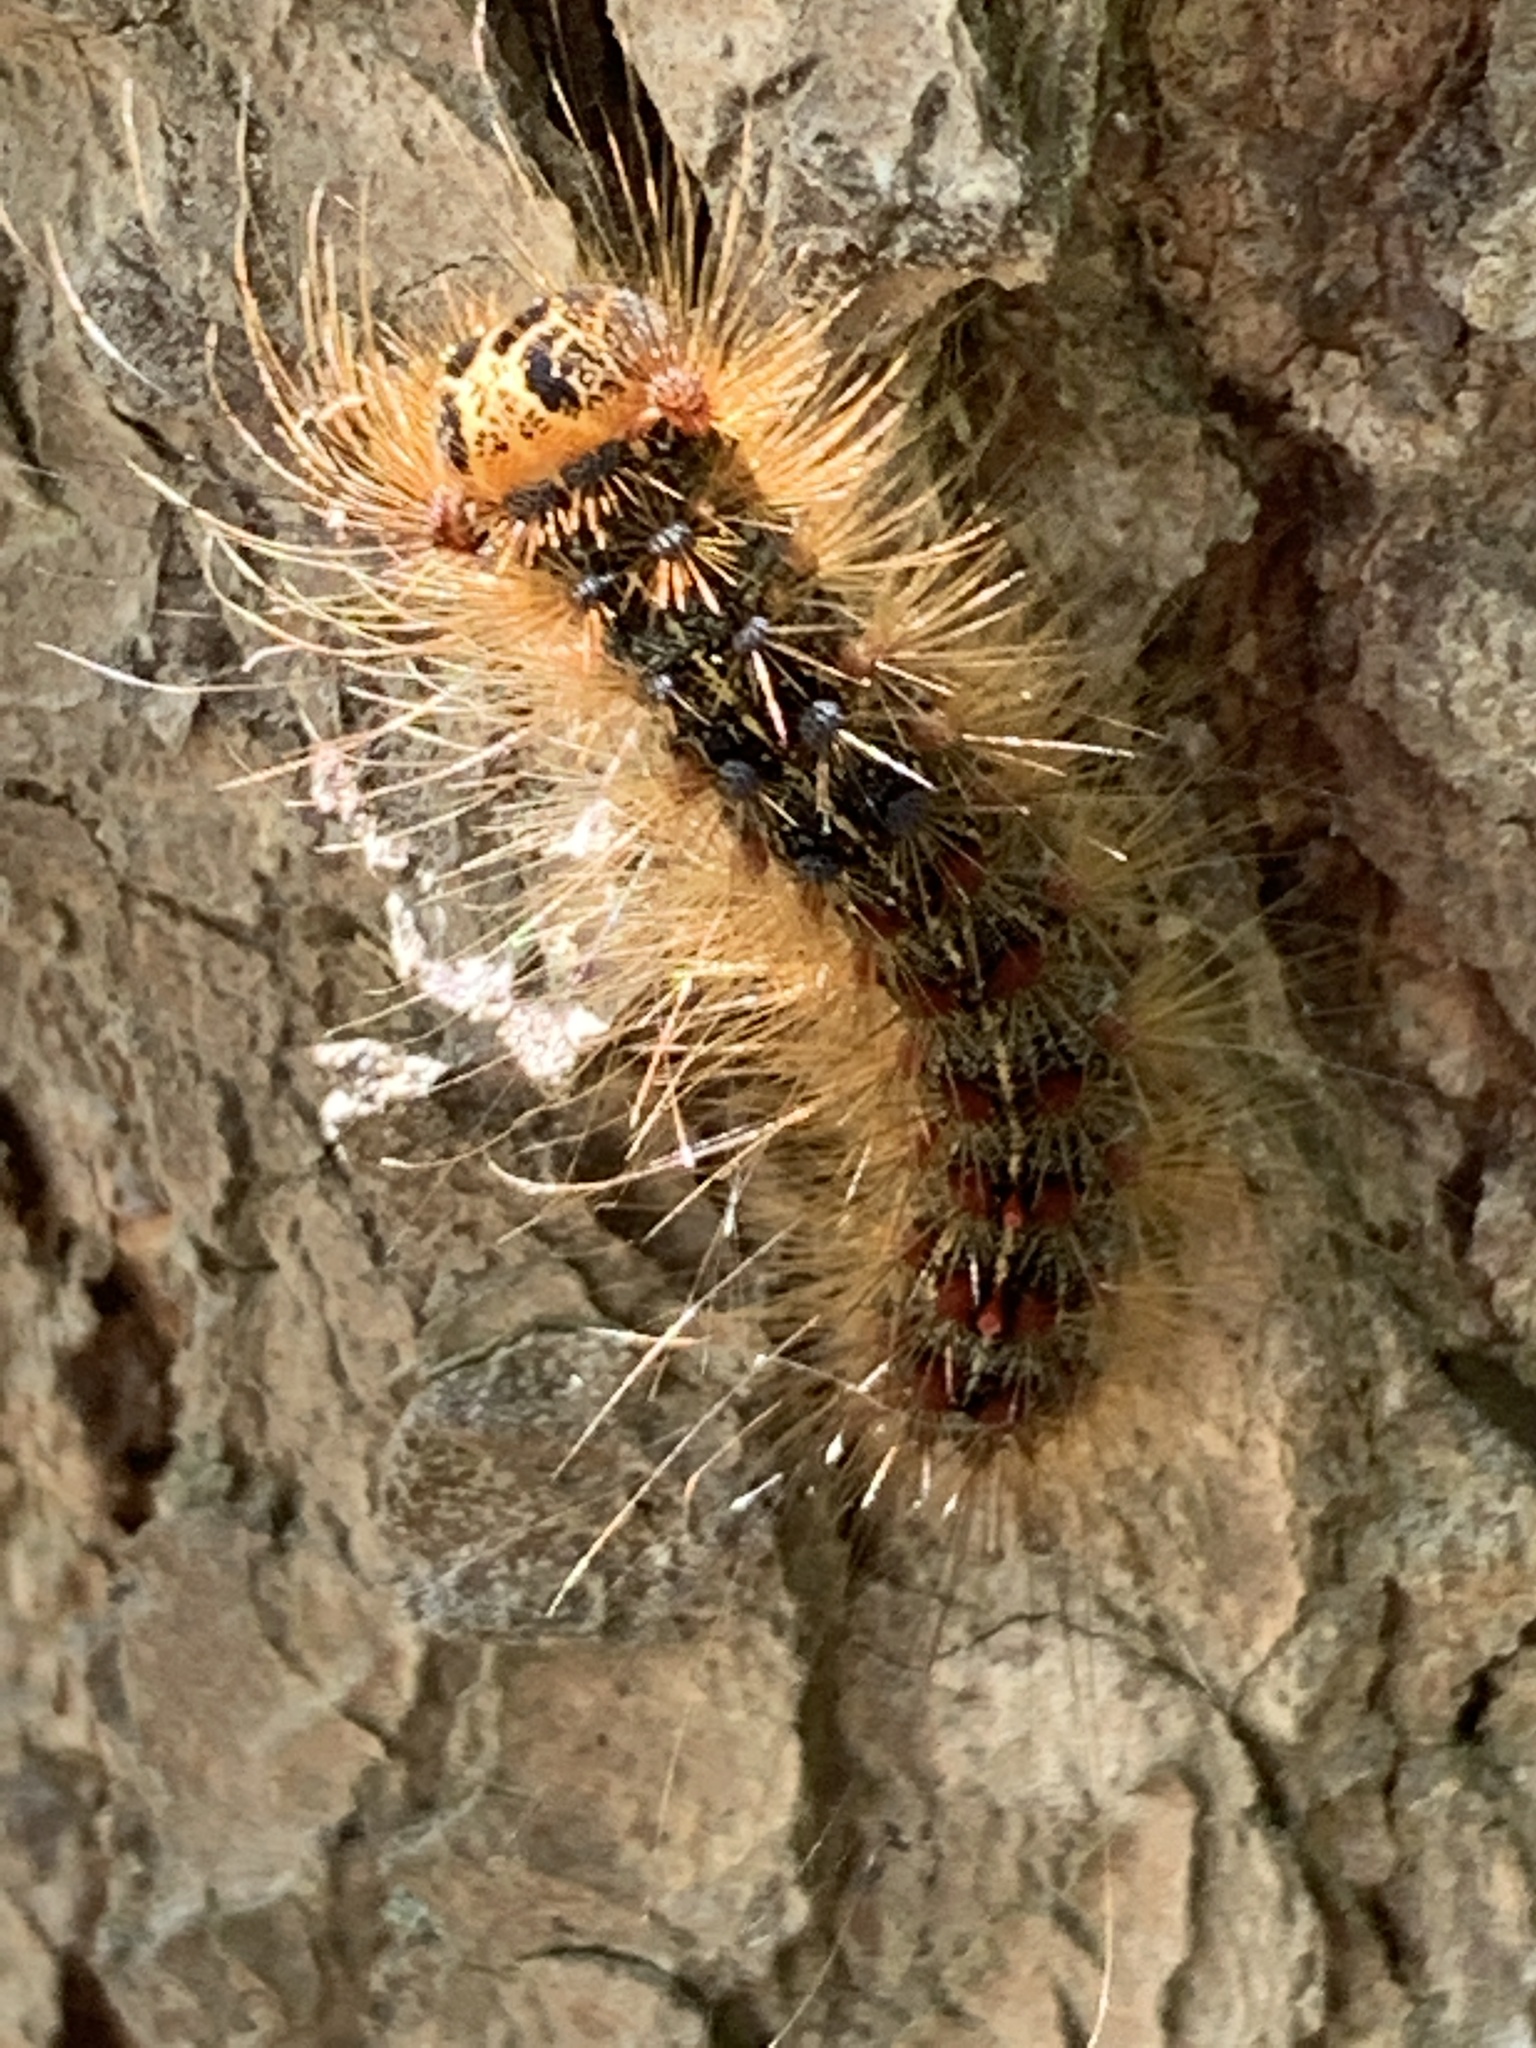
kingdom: Animalia
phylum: Arthropoda
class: Insecta
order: Lepidoptera
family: Erebidae
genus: Lymantria
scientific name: Lymantria dispar
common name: Gypsy moth
